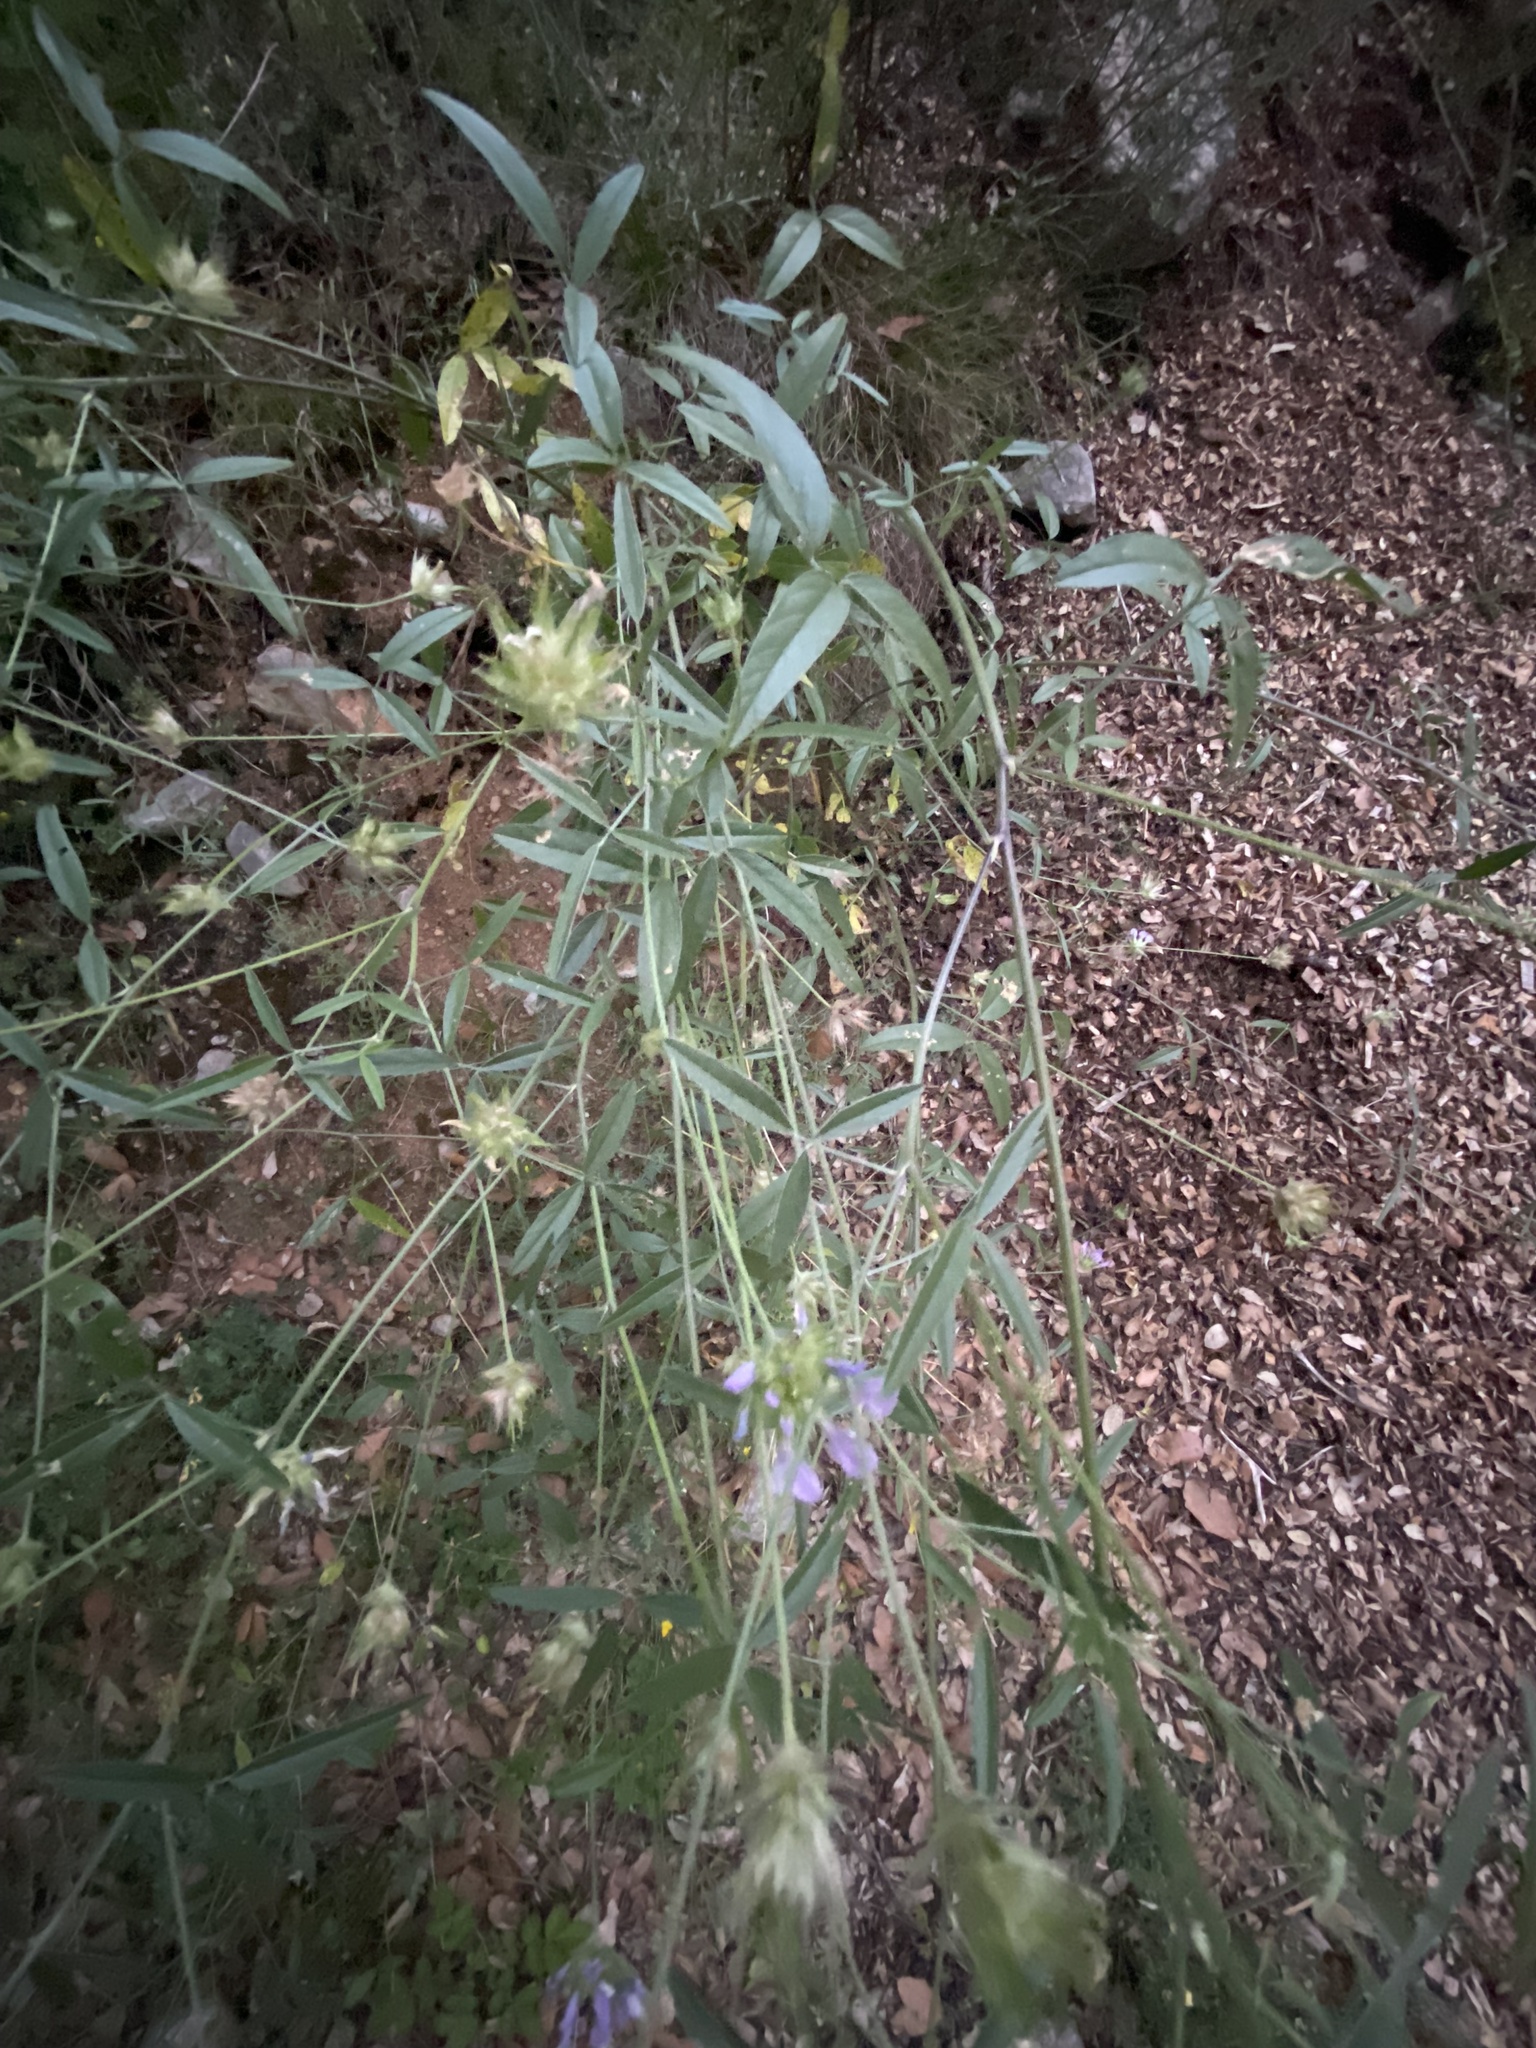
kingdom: Plantae
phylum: Tracheophyta
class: Magnoliopsida
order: Fabales
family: Fabaceae
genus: Bituminaria
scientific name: Bituminaria bituminosa
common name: Arabian pea
